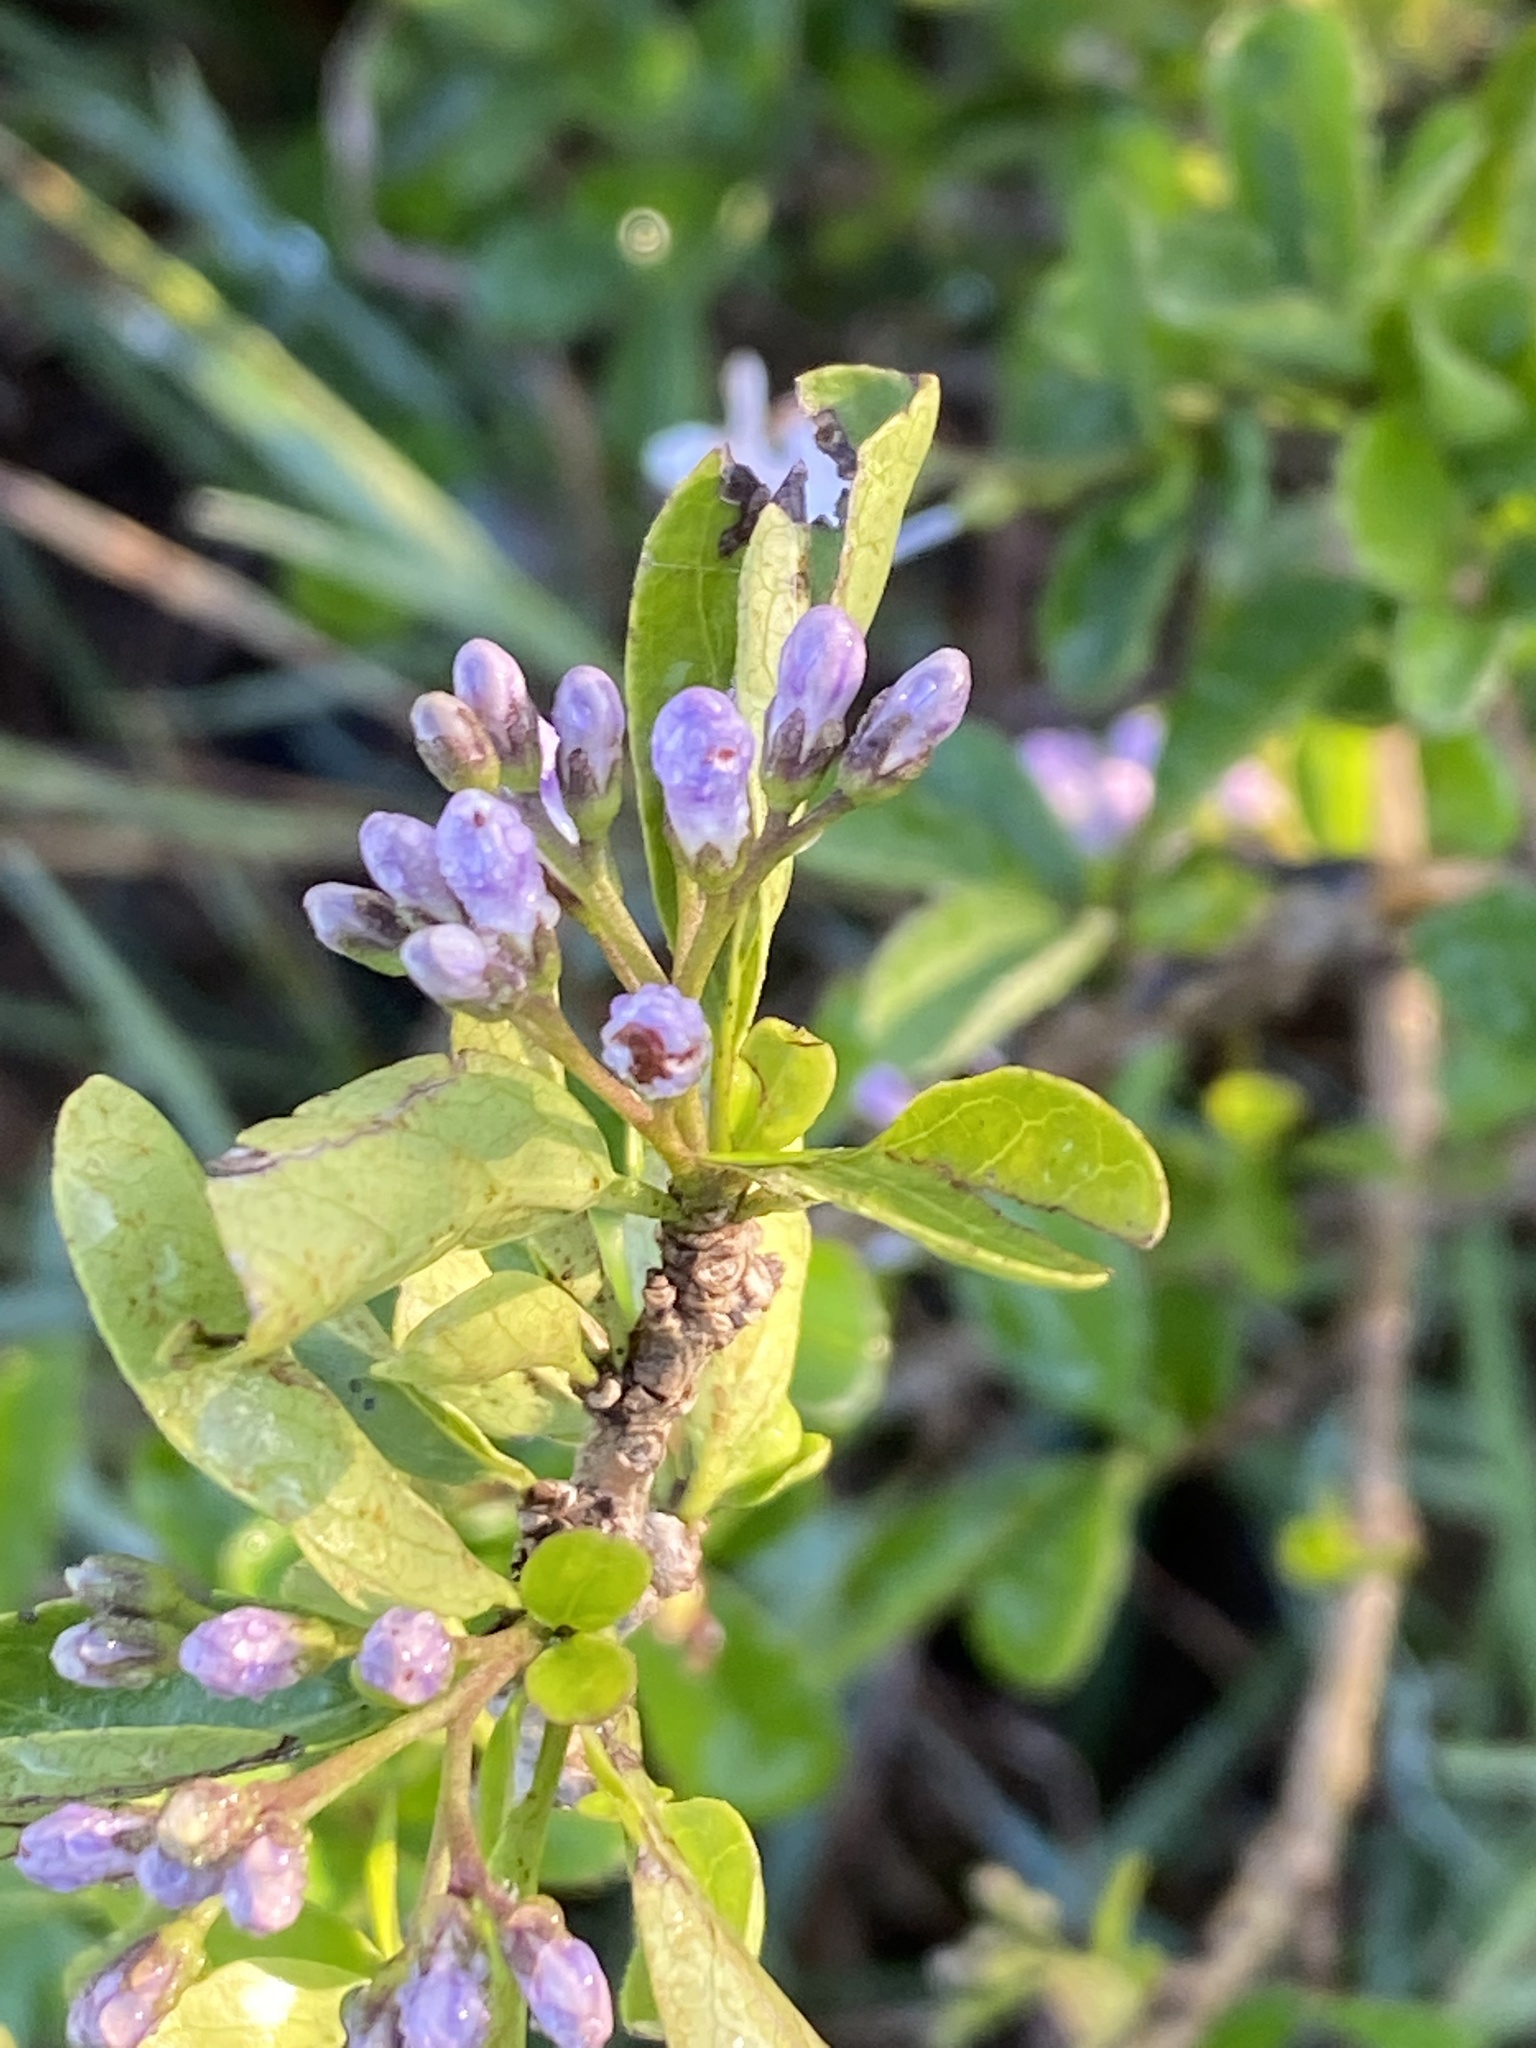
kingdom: Plantae
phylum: Tracheophyta
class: Magnoliopsida
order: Boraginales
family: Ehretiaceae
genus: Ehretia
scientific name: Ehretia rigida
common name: Cape lilac
